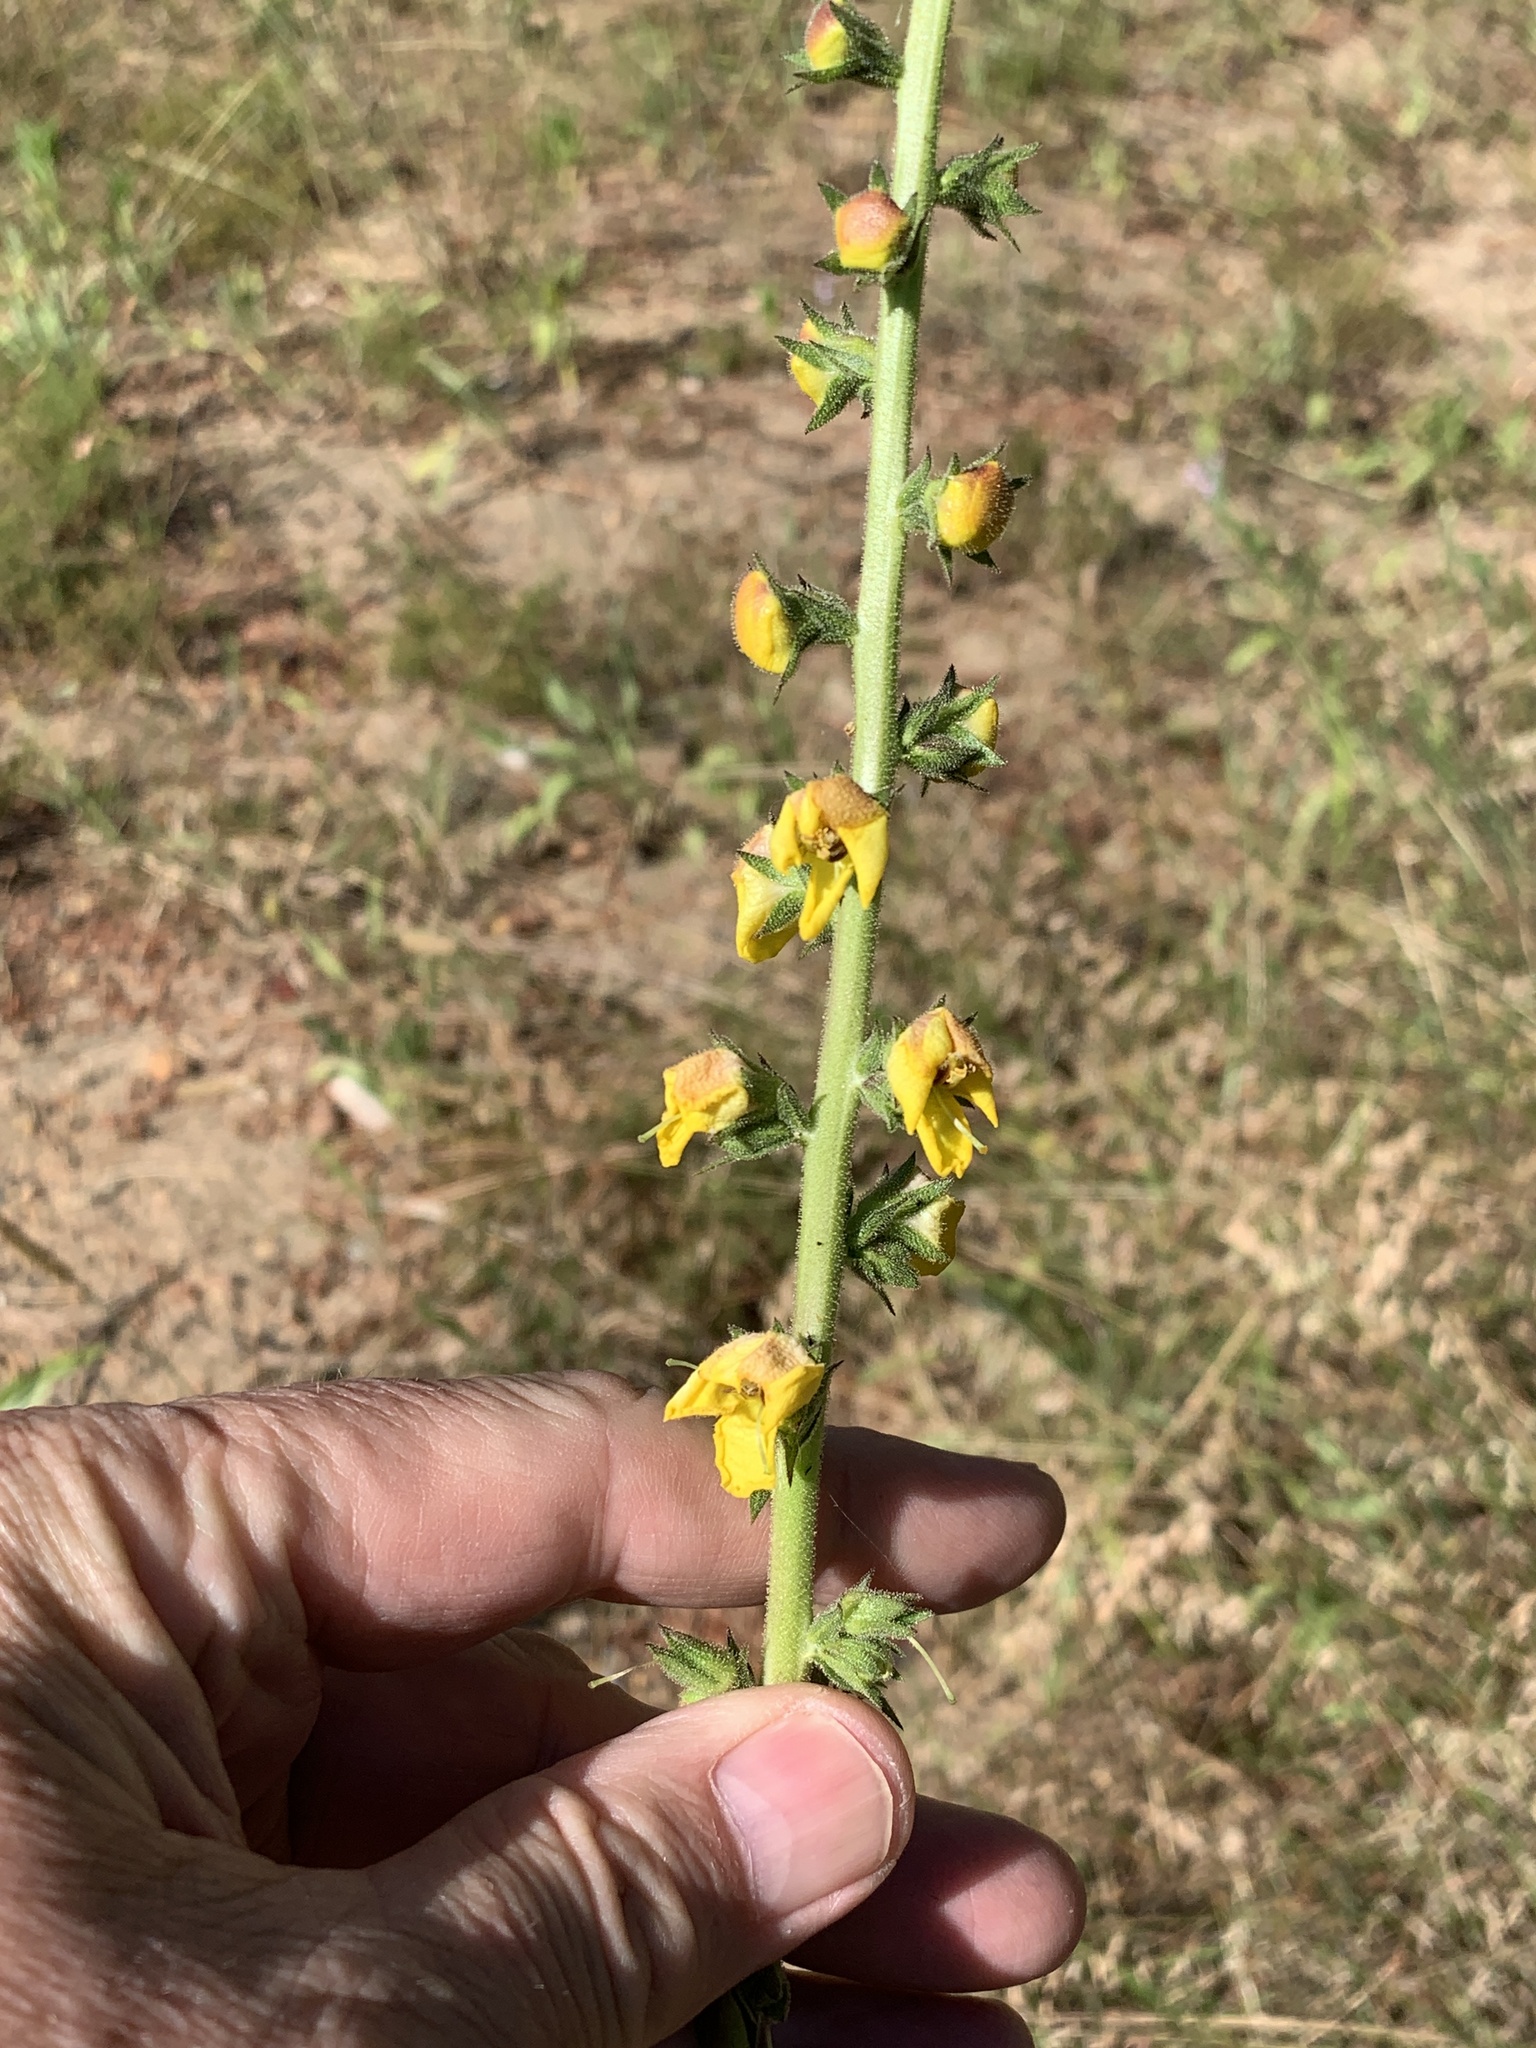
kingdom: Plantae
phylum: Tracheophyta
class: Magnoliopsida
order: Lamiales
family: Scrophulariaceae
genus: Verbascum
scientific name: Verbascum virgatum
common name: Twiggy mullein
